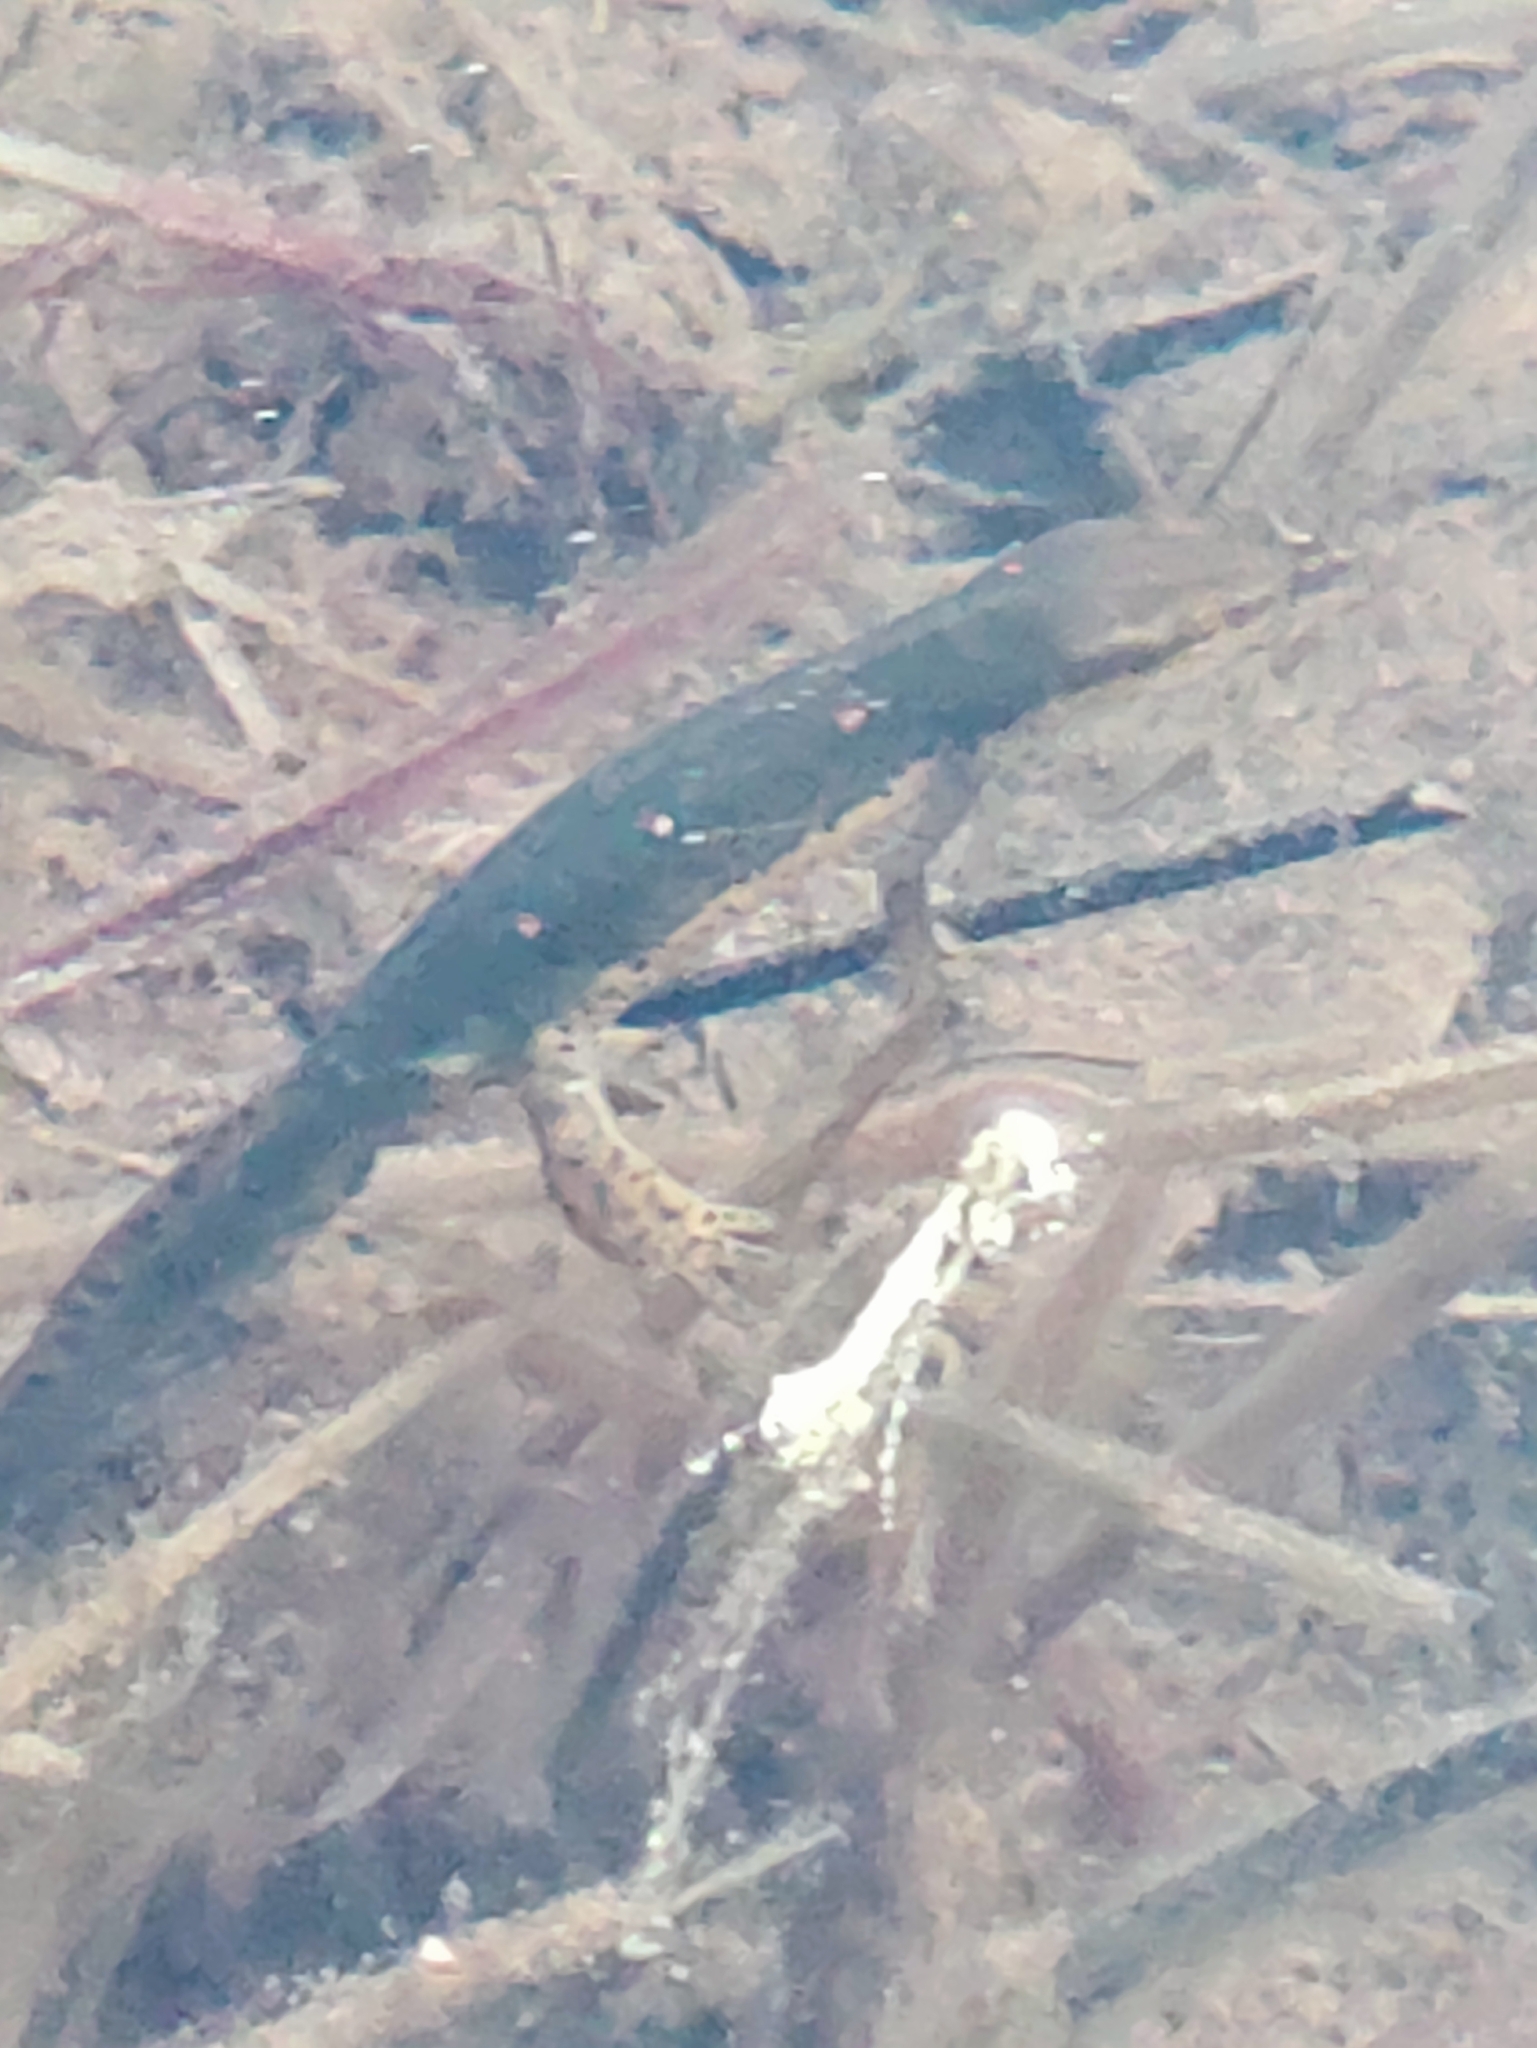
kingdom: Animalia
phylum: Chordata
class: Amphibia
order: Caudata
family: Salamandridae
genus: Notophthalmus
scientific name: Notophthalmus viridescens
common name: Eastern newt
